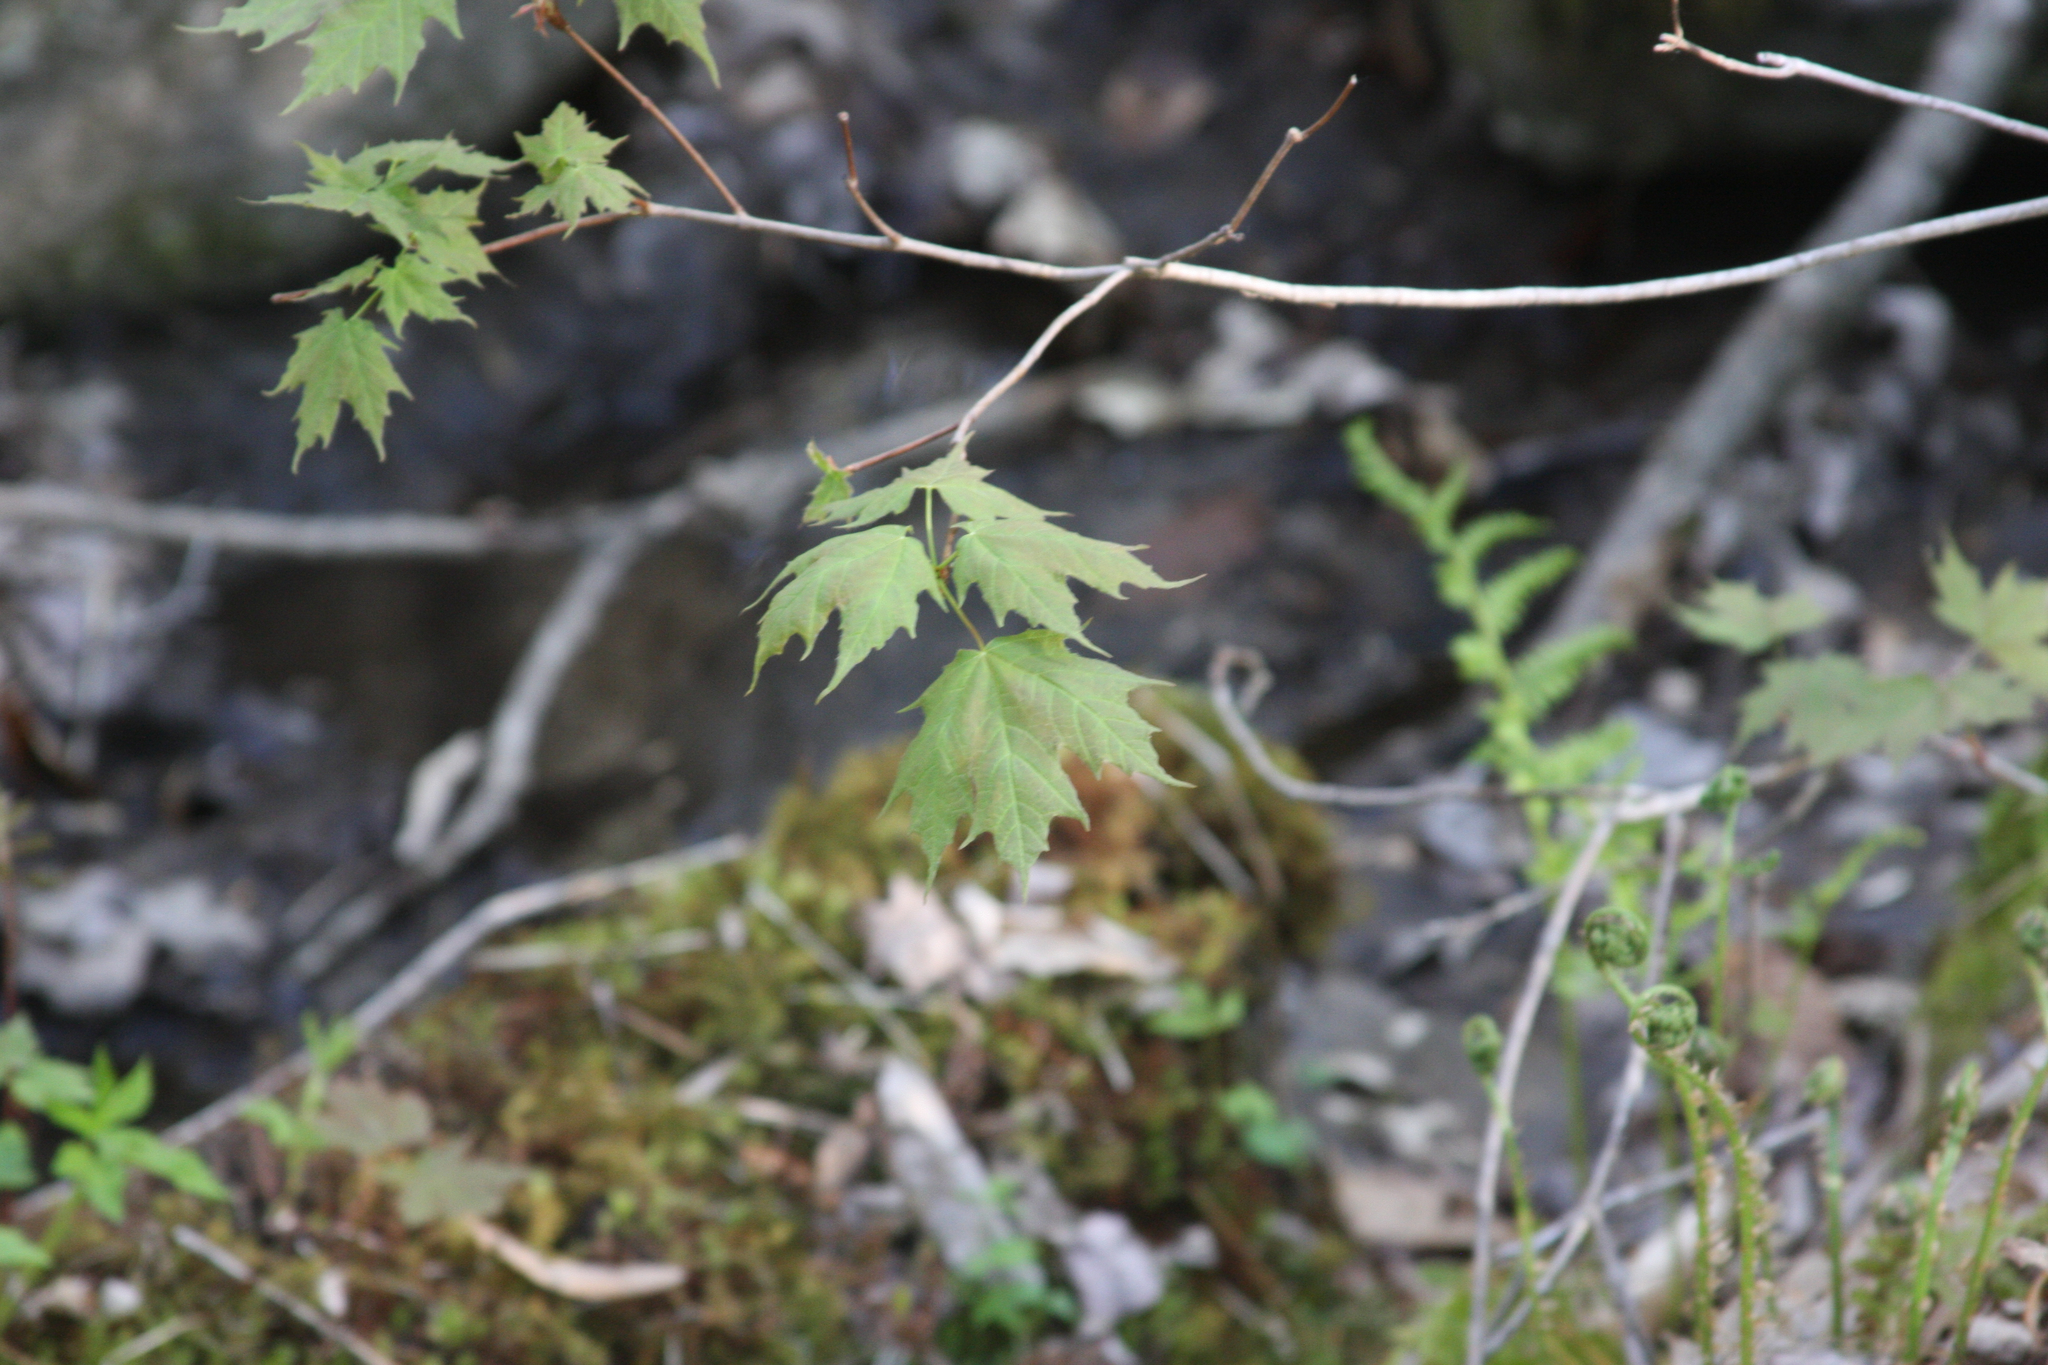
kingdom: Plantae
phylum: Tracheophyta
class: Magnoliopsida
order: Sapindales
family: Sapindaceae
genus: Acer
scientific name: Acer saccharum
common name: Sugar maple
